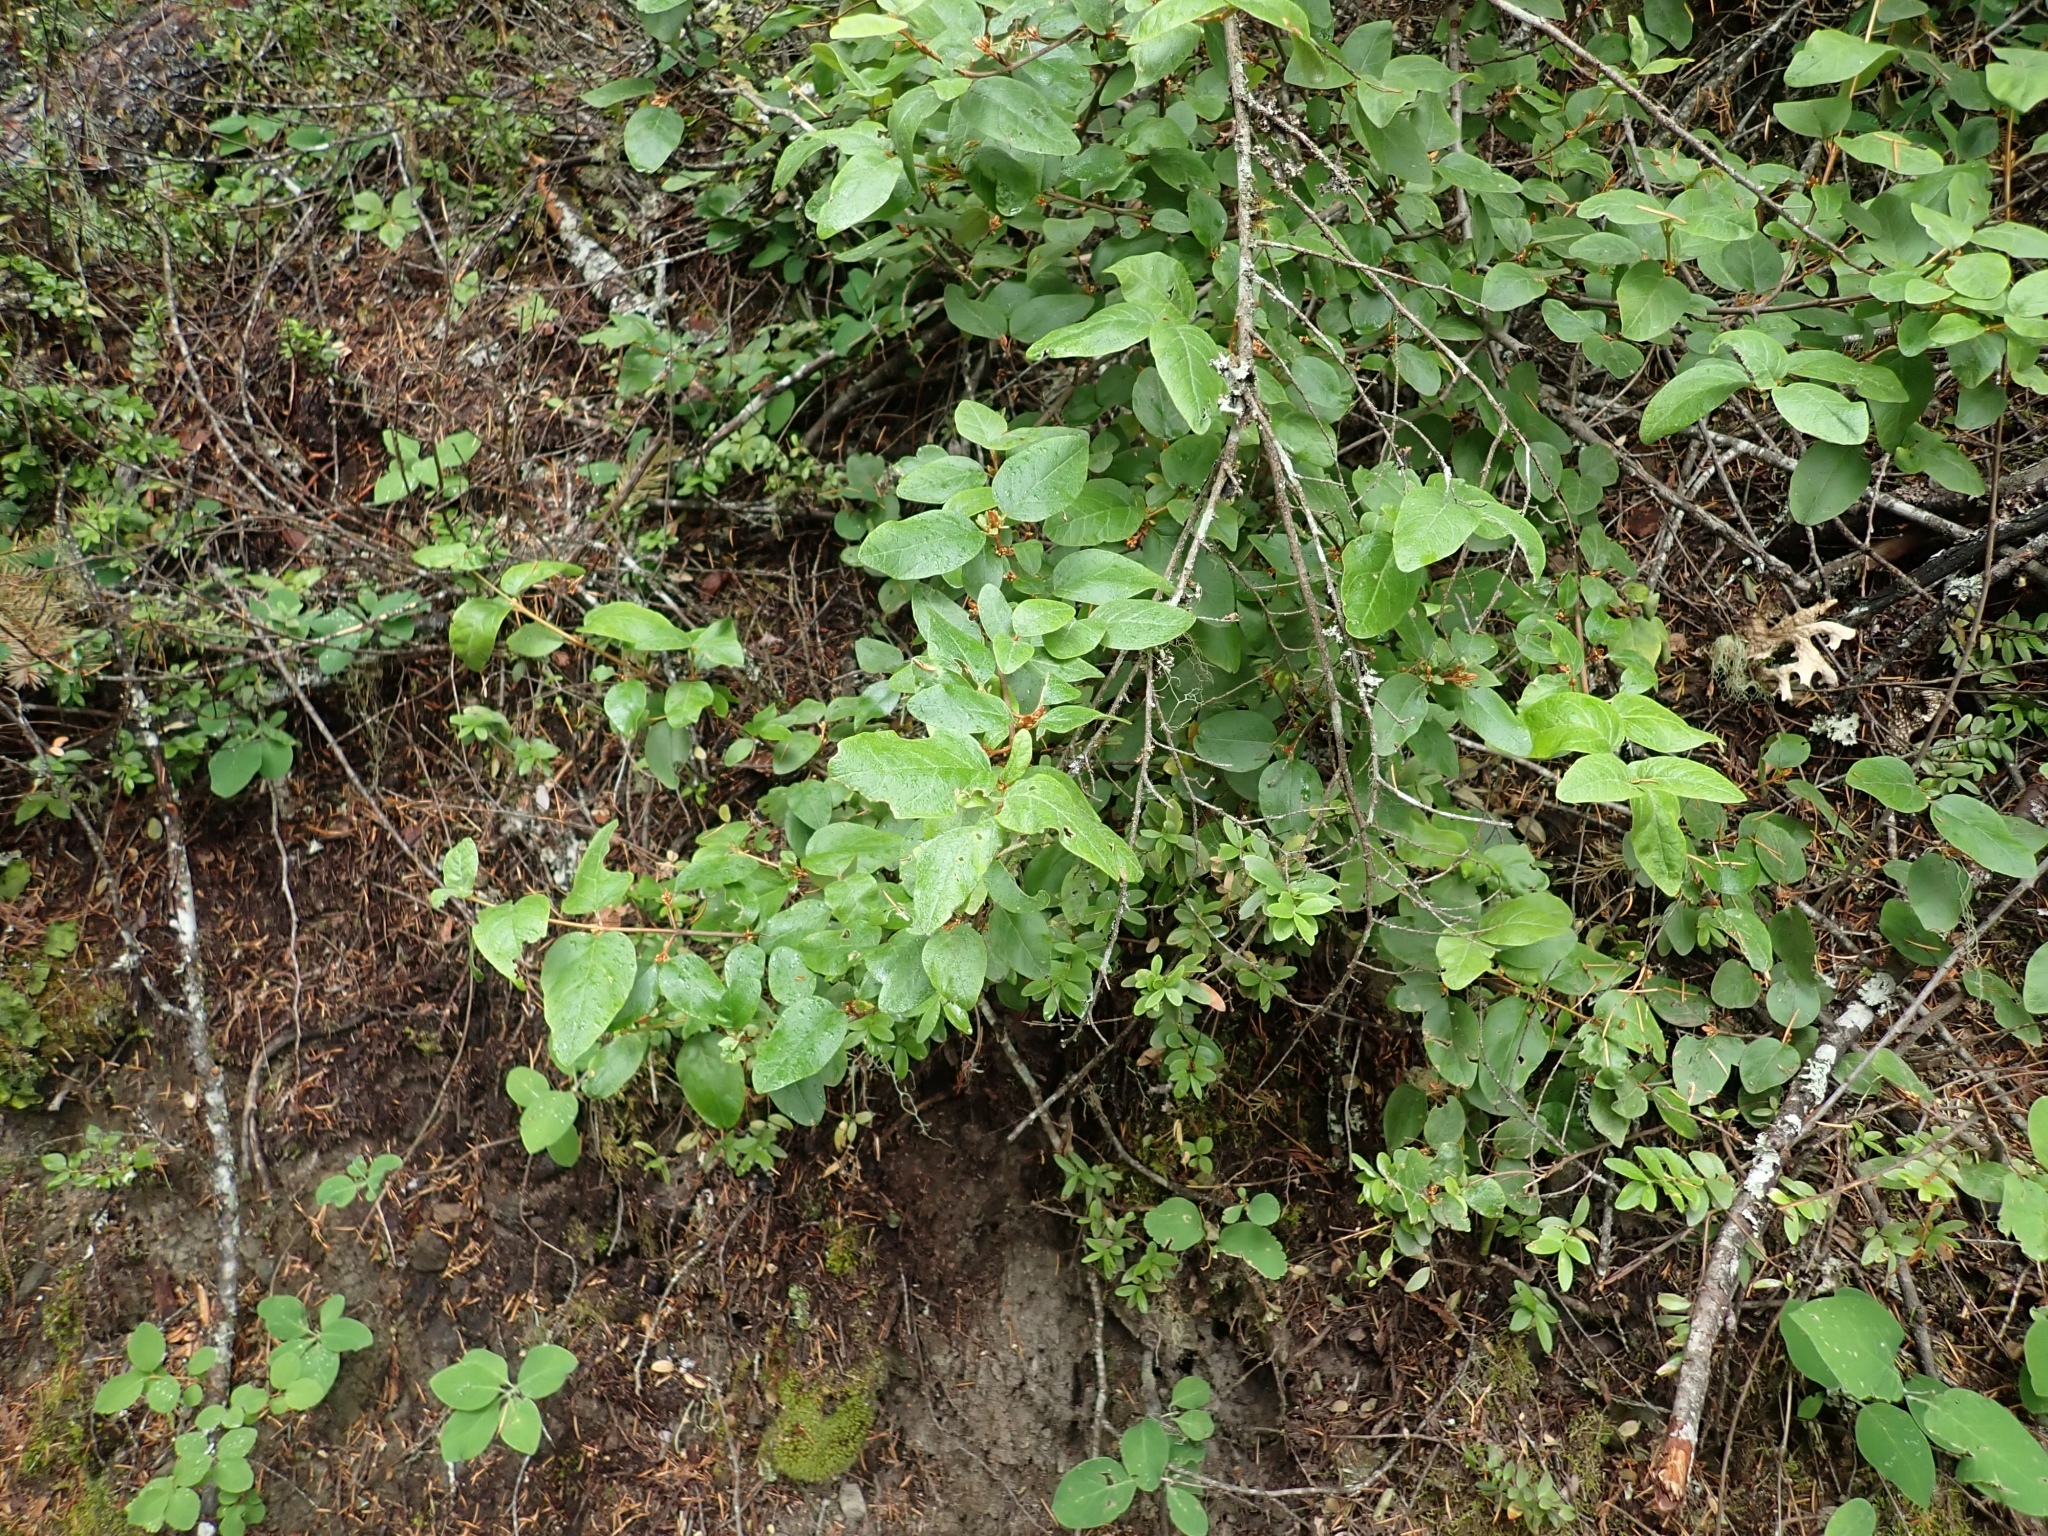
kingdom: Plantae
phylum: Tracheophyta
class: Magnoliopsida
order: Rosales
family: Elaeagnaceae
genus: Shepherdia
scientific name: Shepherdia canadensis
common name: Soapberry
